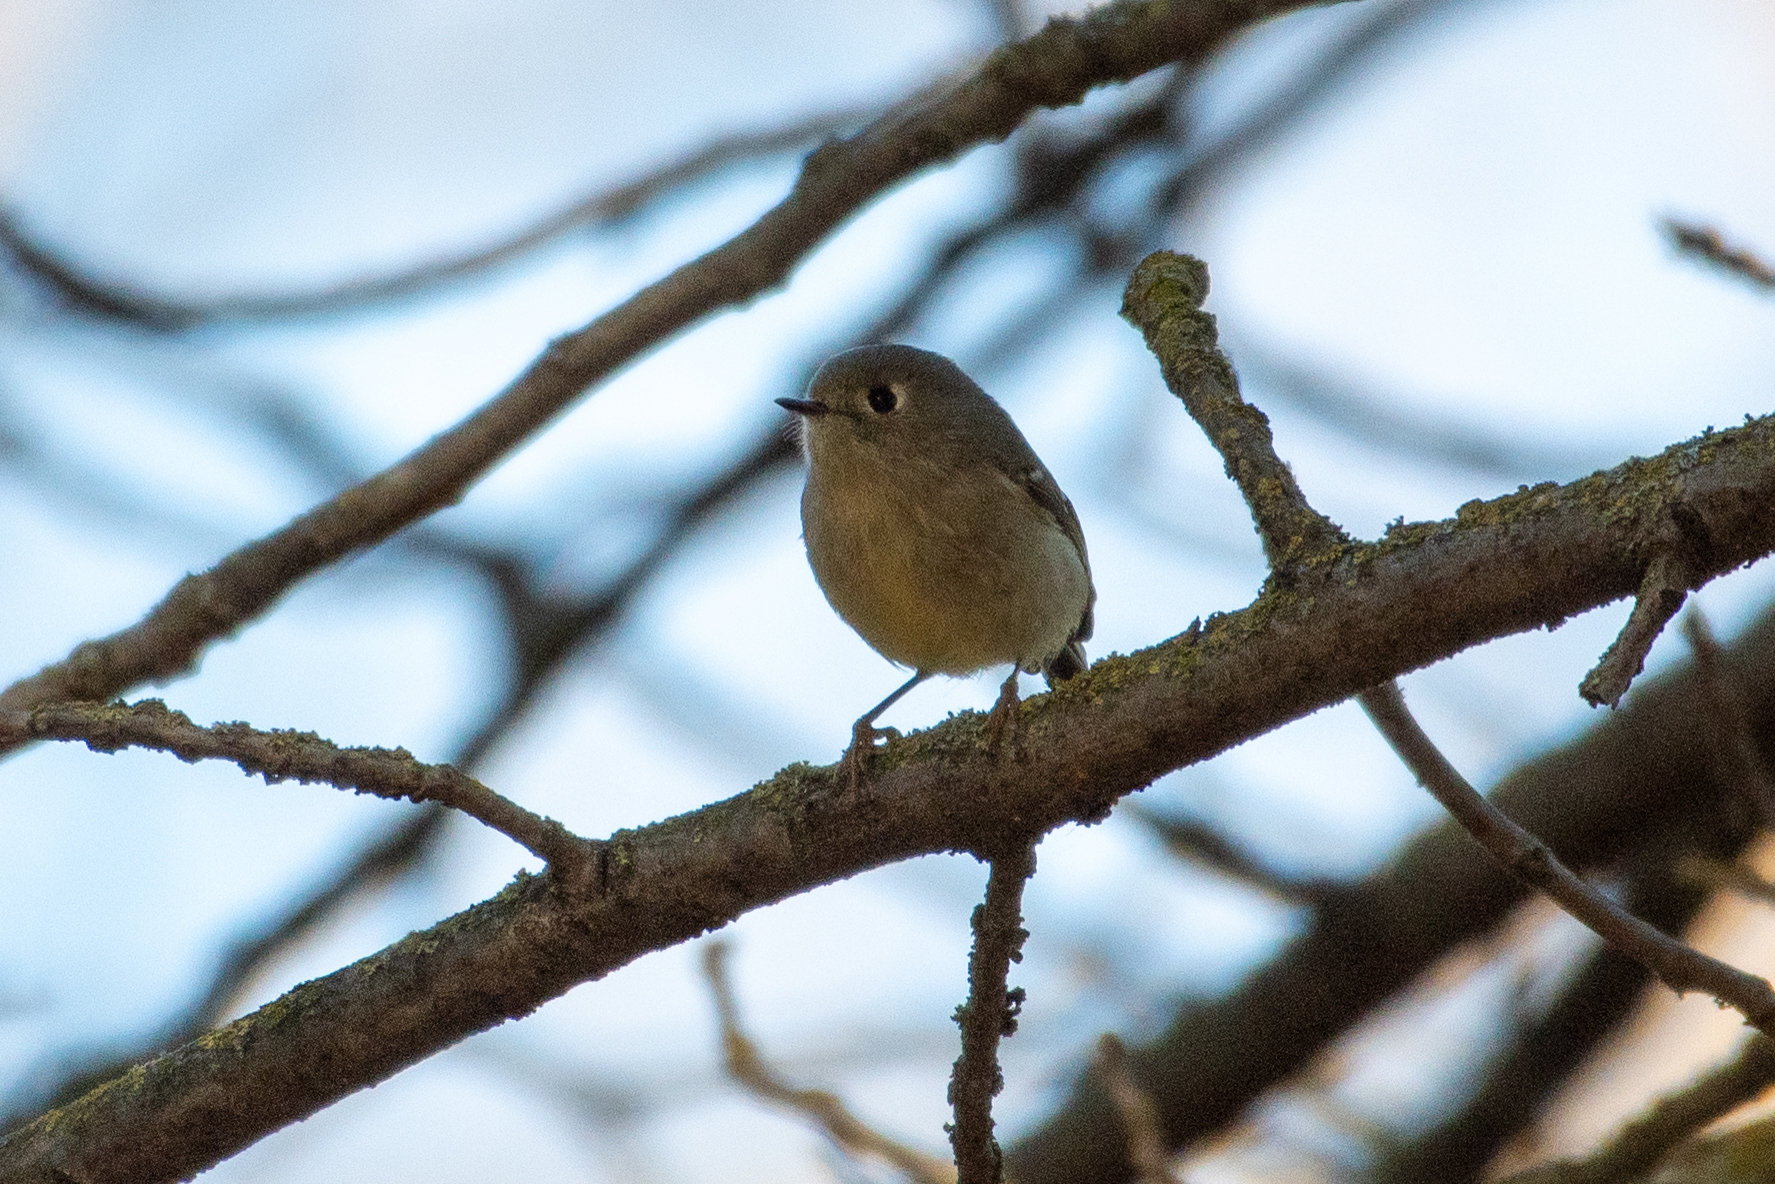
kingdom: Animalia
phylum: Chordata
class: Aves
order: Passeriformes
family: Regulidae
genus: Regulus
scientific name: Regulus calendula
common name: Ruby-crowned kinglet
